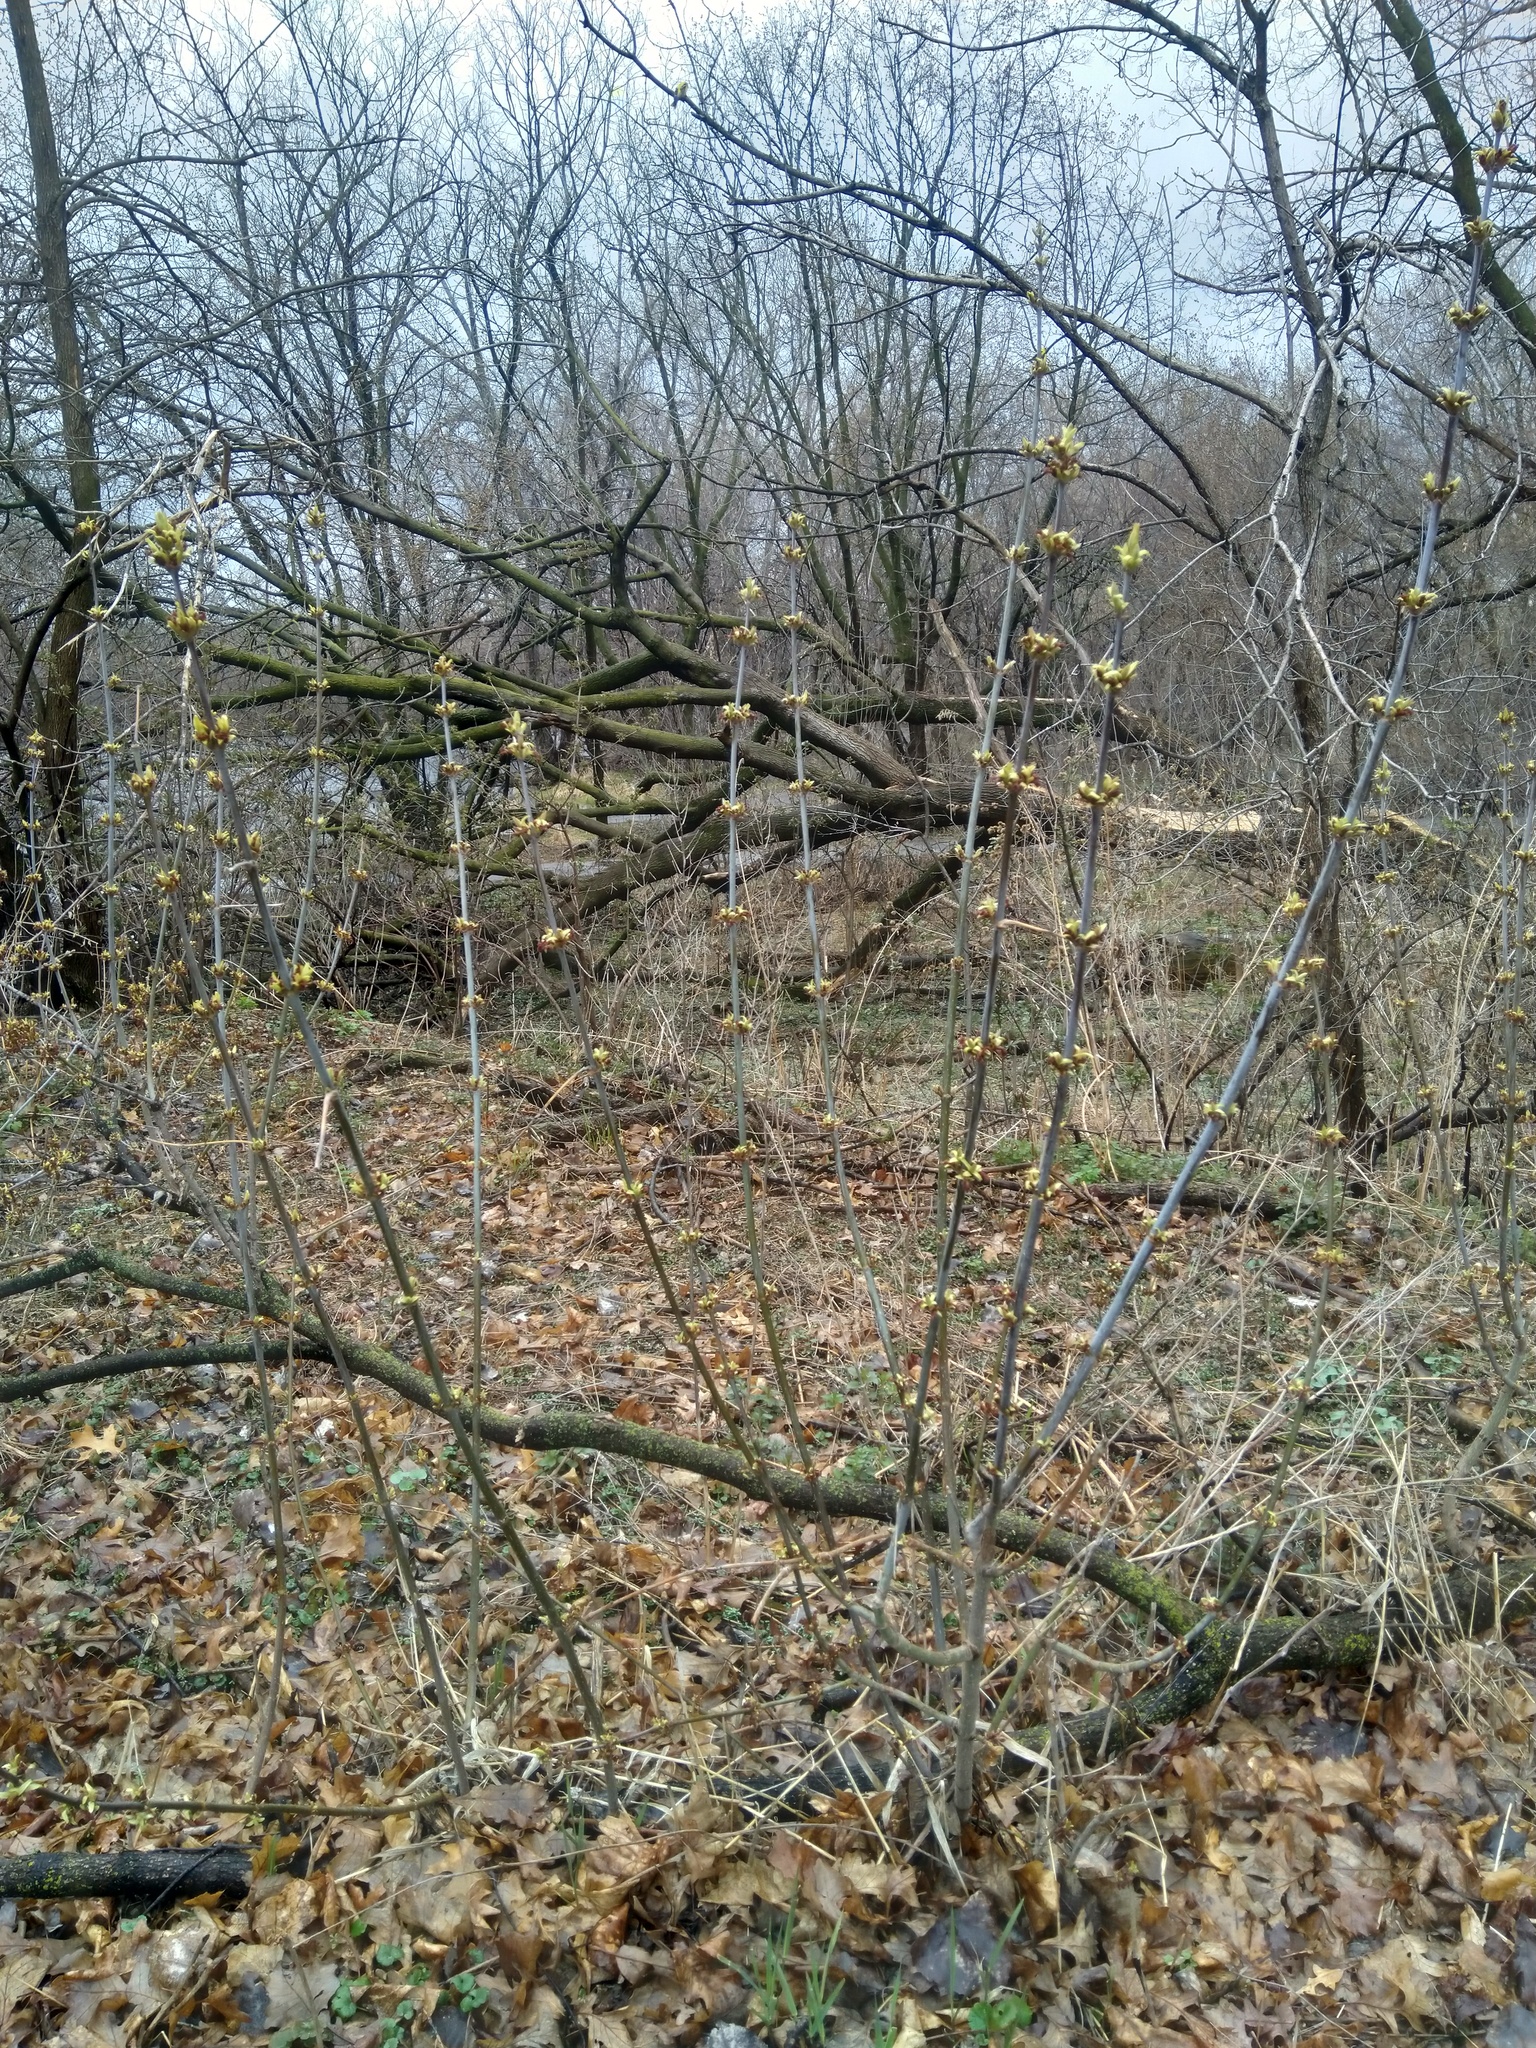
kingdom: Plantae
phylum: Tracheophyta
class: Magnoliopsida
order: Sapindales
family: Sapindaceae
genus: Acer
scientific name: Acer negundo
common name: Ashleaf maple
